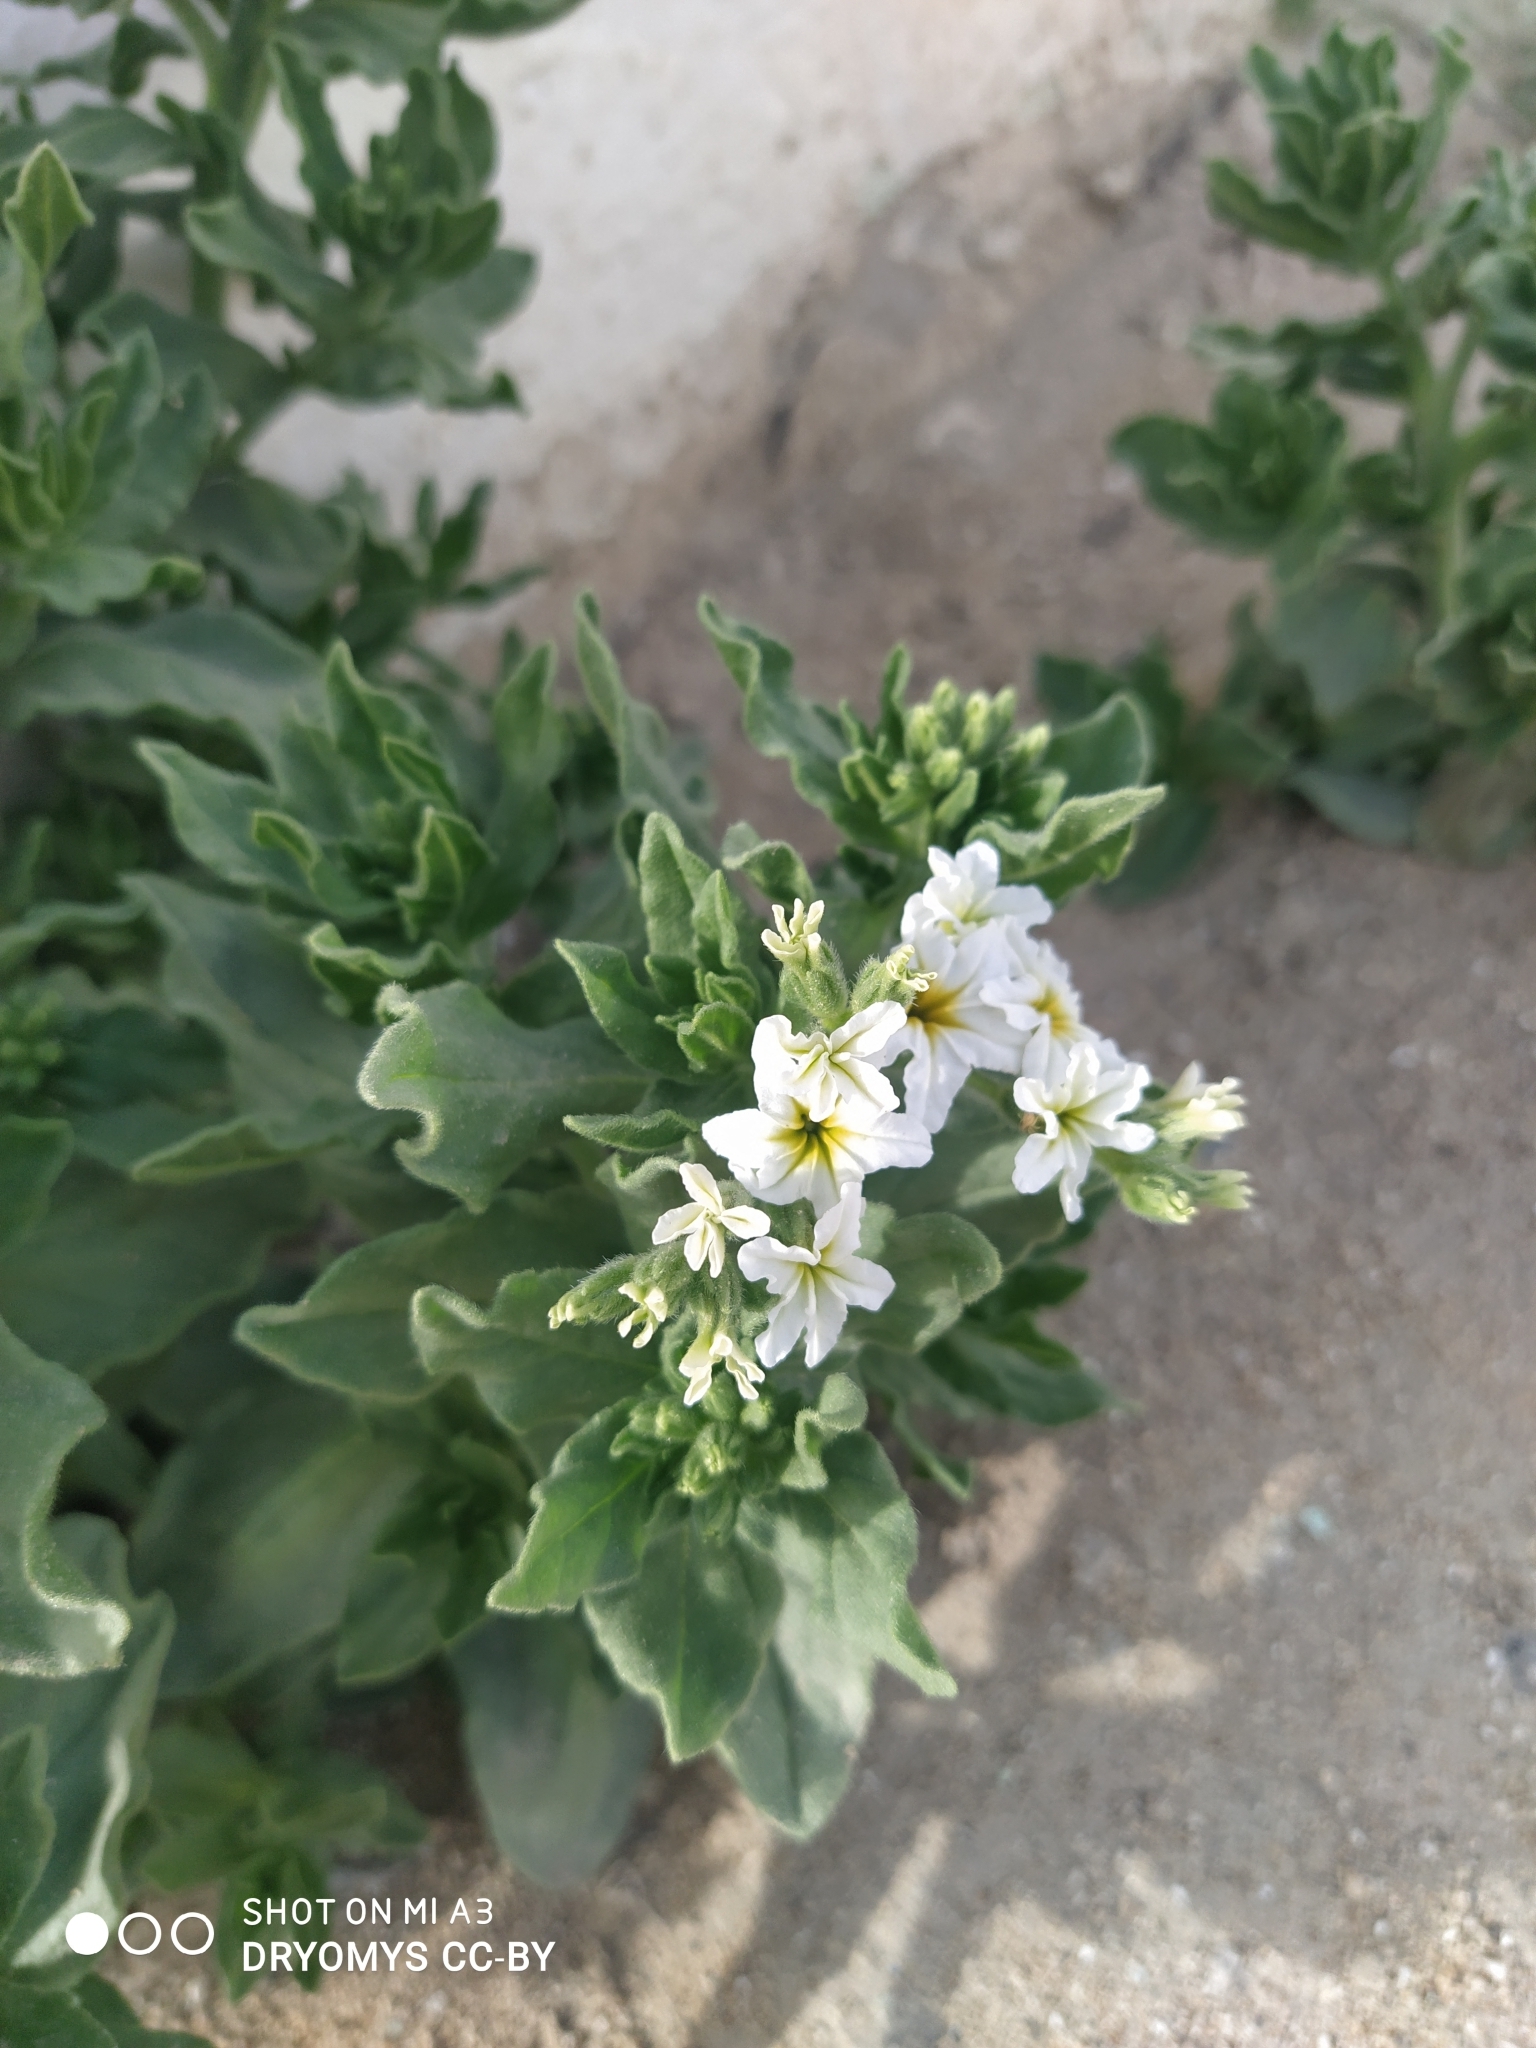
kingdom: Plantae
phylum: Tracheophyta
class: Magnoliopsida
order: Boraginales
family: Heliotropiaceae
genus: Tournefortia
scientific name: Tournefortia sibirica
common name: Siberian sea rosemary
